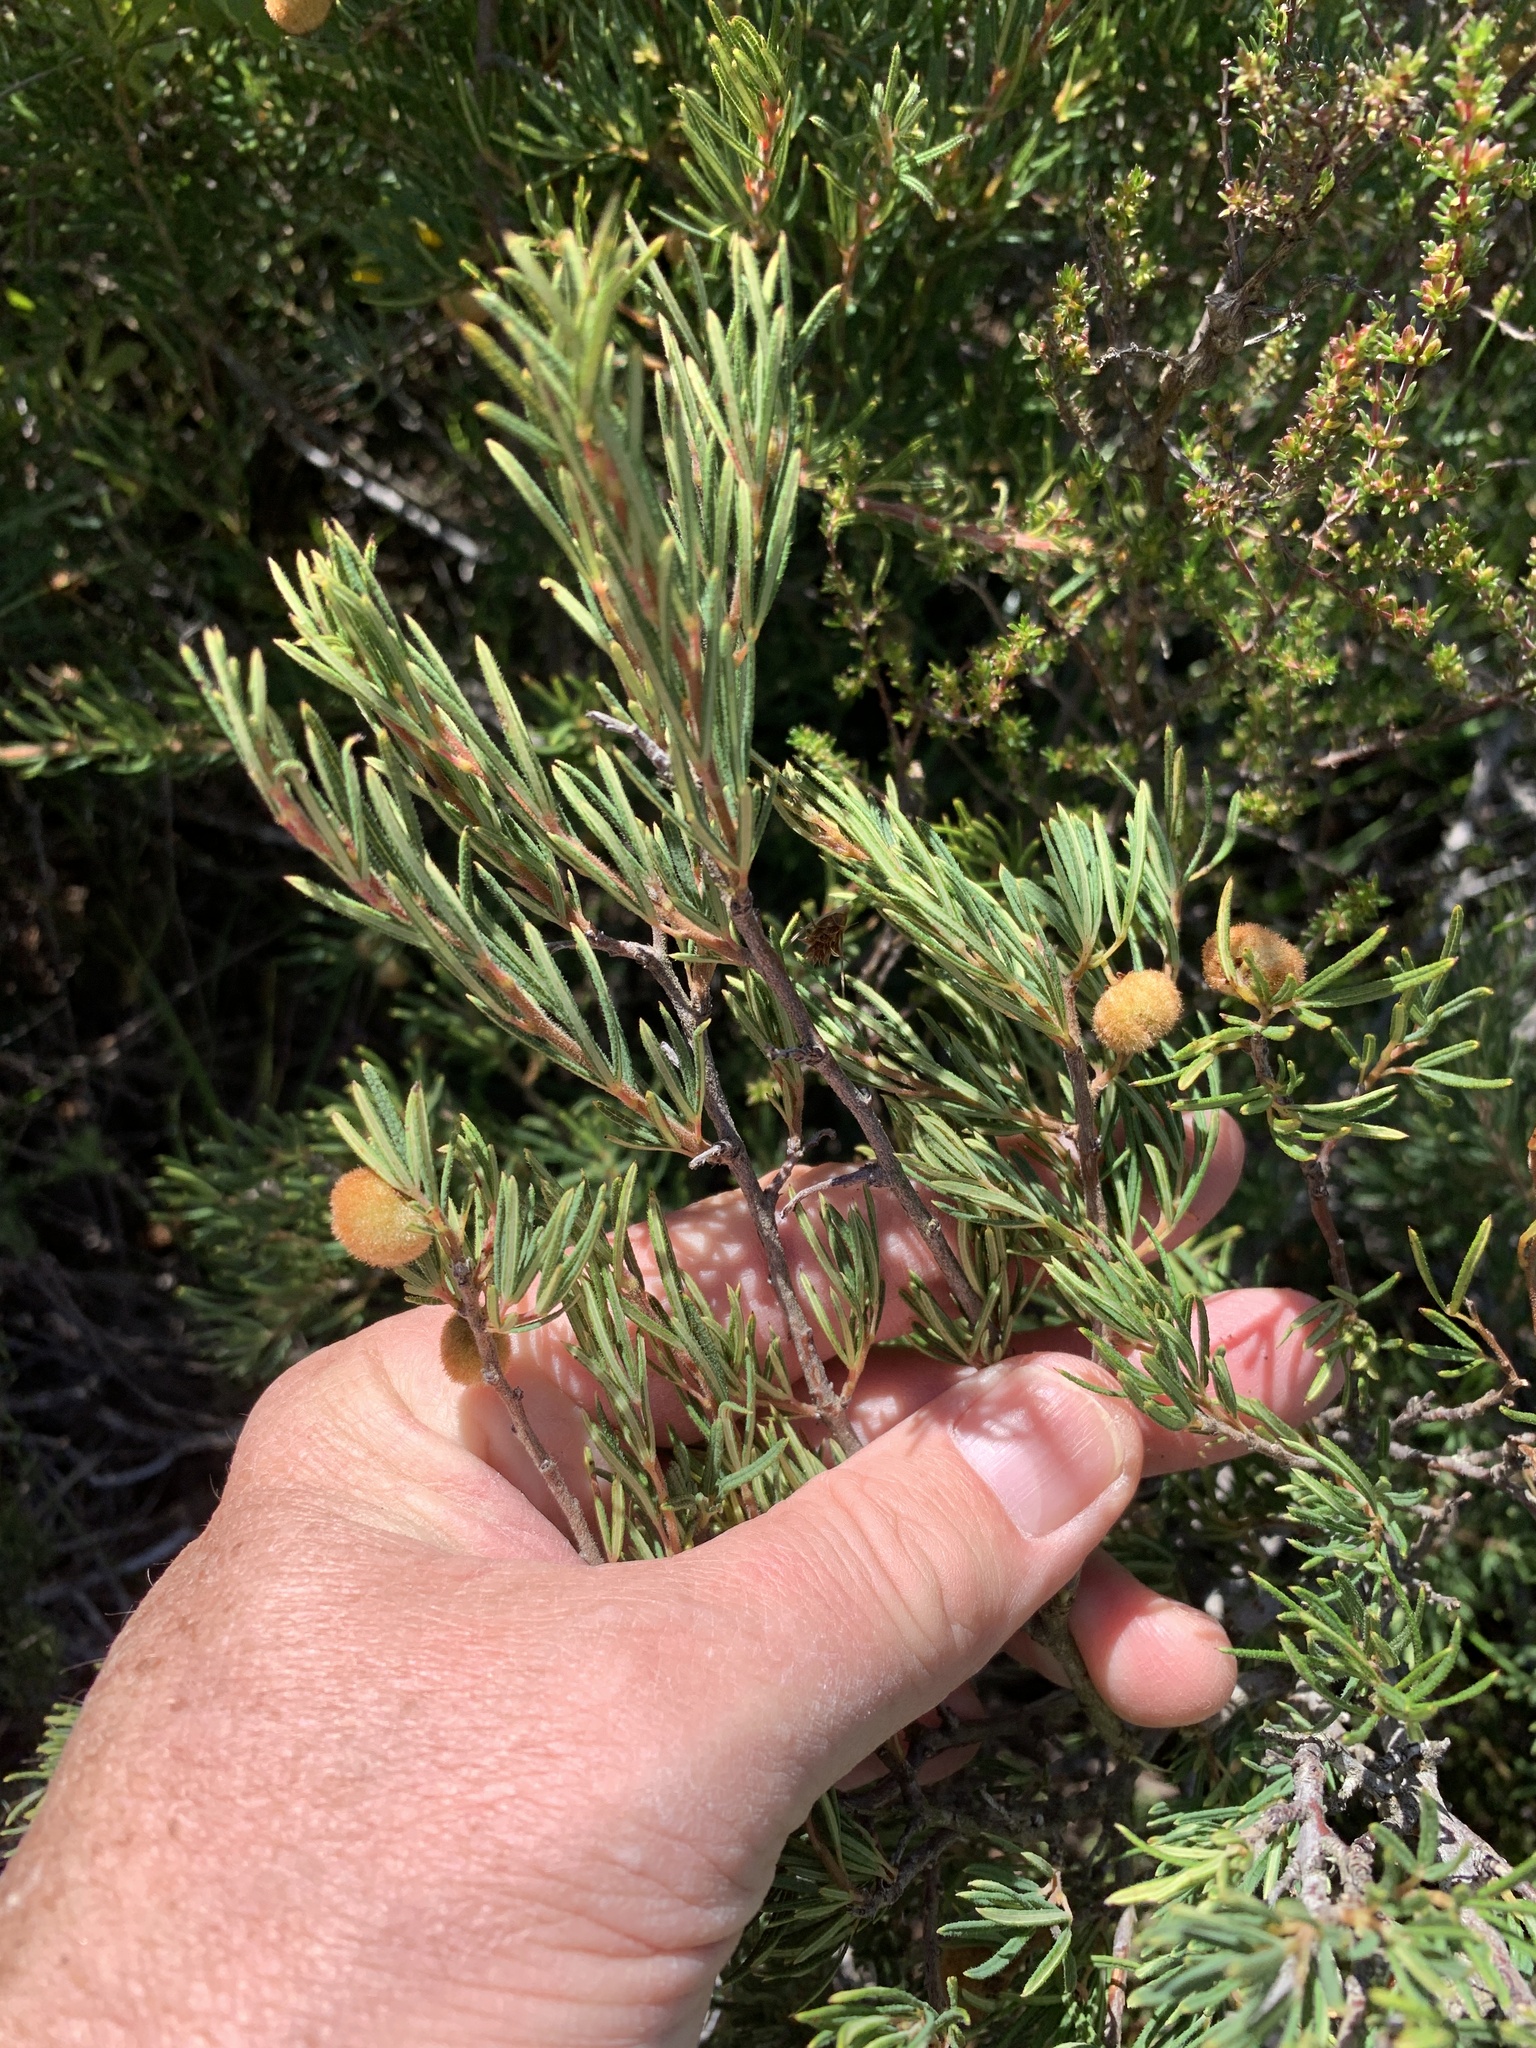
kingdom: Plantae
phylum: Tracheophyta
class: Magnoliopsida
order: Sapindales
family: Anacardiaceae
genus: Searsia
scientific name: Searsia rosmarinifolia
